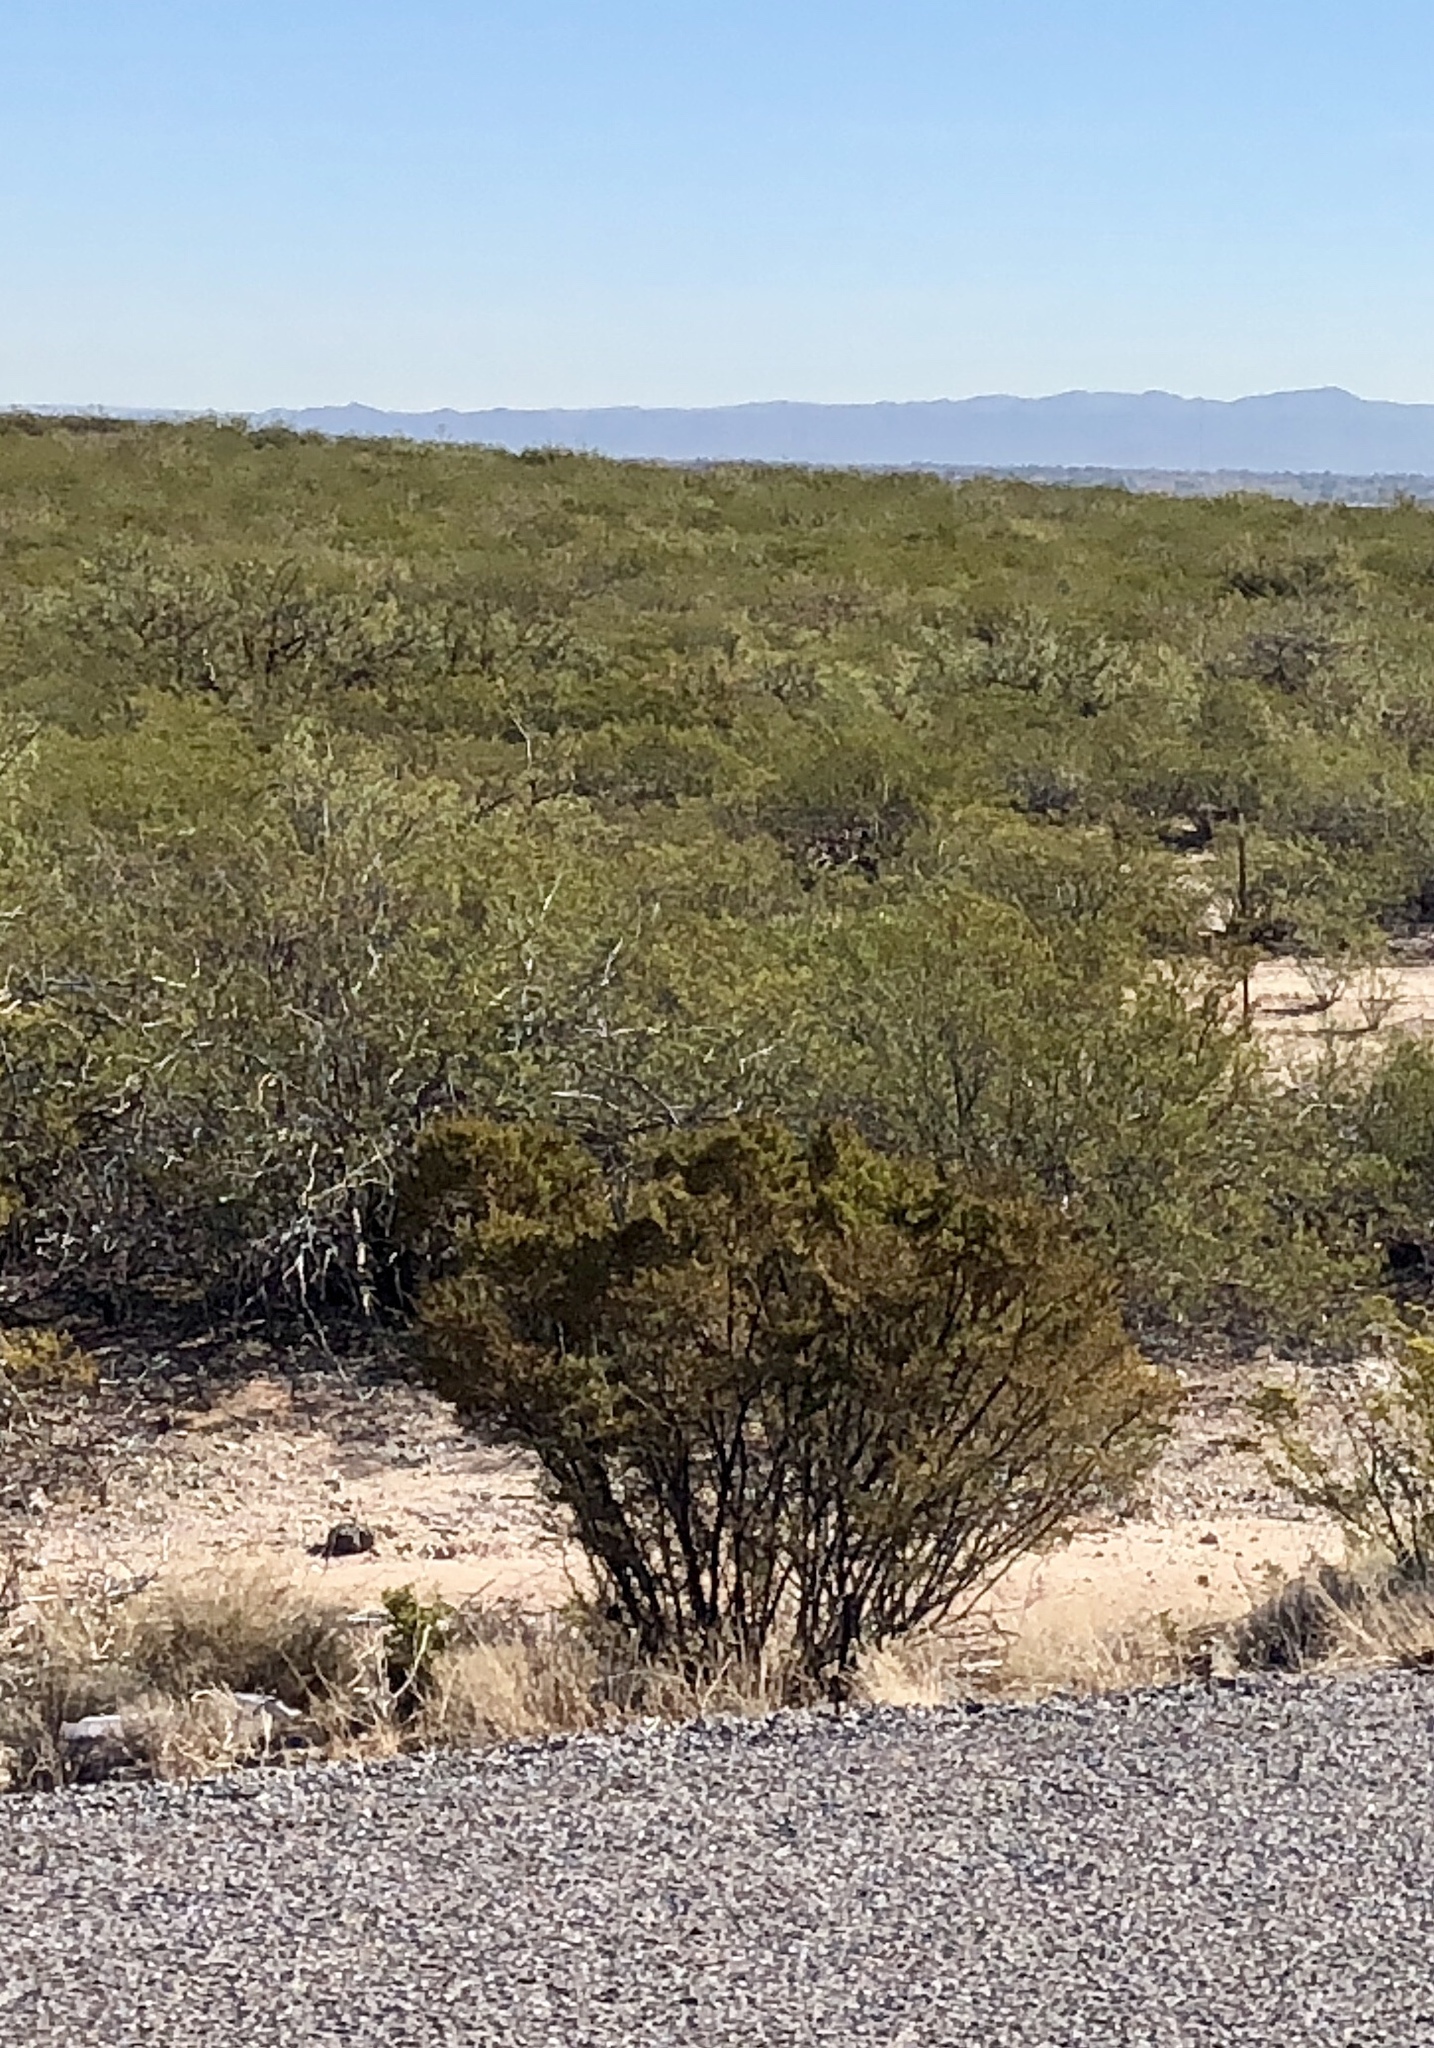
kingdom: Plantae
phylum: Tracheophyta
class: Magnoliopsida
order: Zygophyllales
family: Zygophyllaceae
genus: Larrea
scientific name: Larrea tridentata
